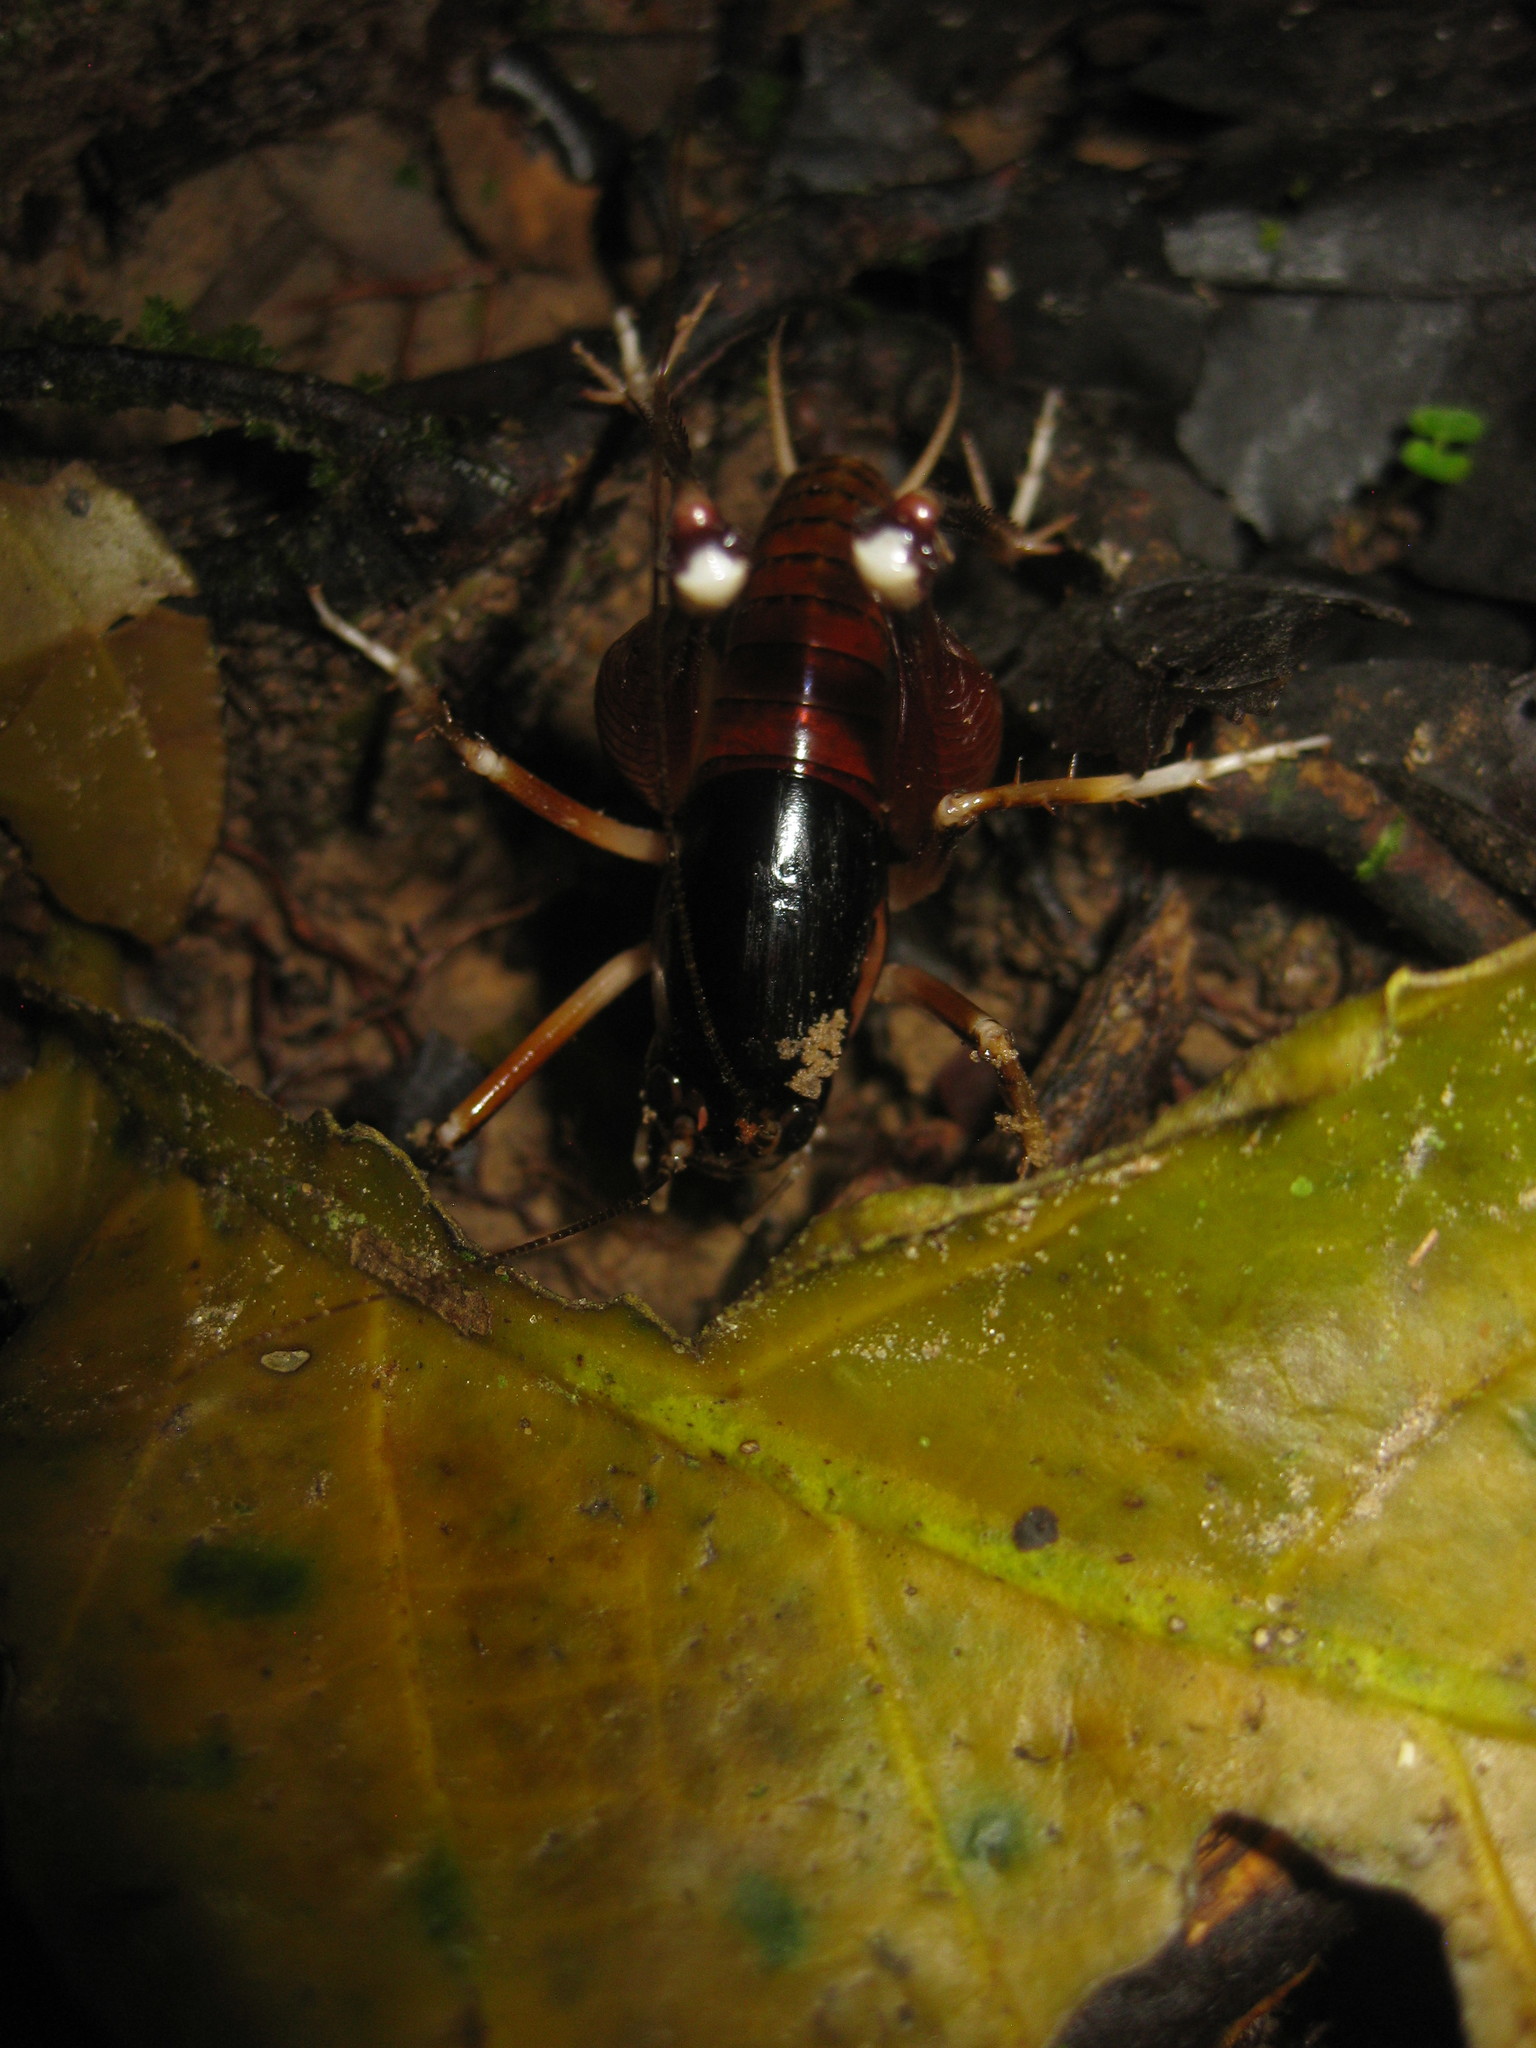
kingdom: Animalia
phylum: Arthropoda
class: Insecta
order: Orthoptera
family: Anostostomatidae
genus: Apotetamenus
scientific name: Apotetamenus amazonae
